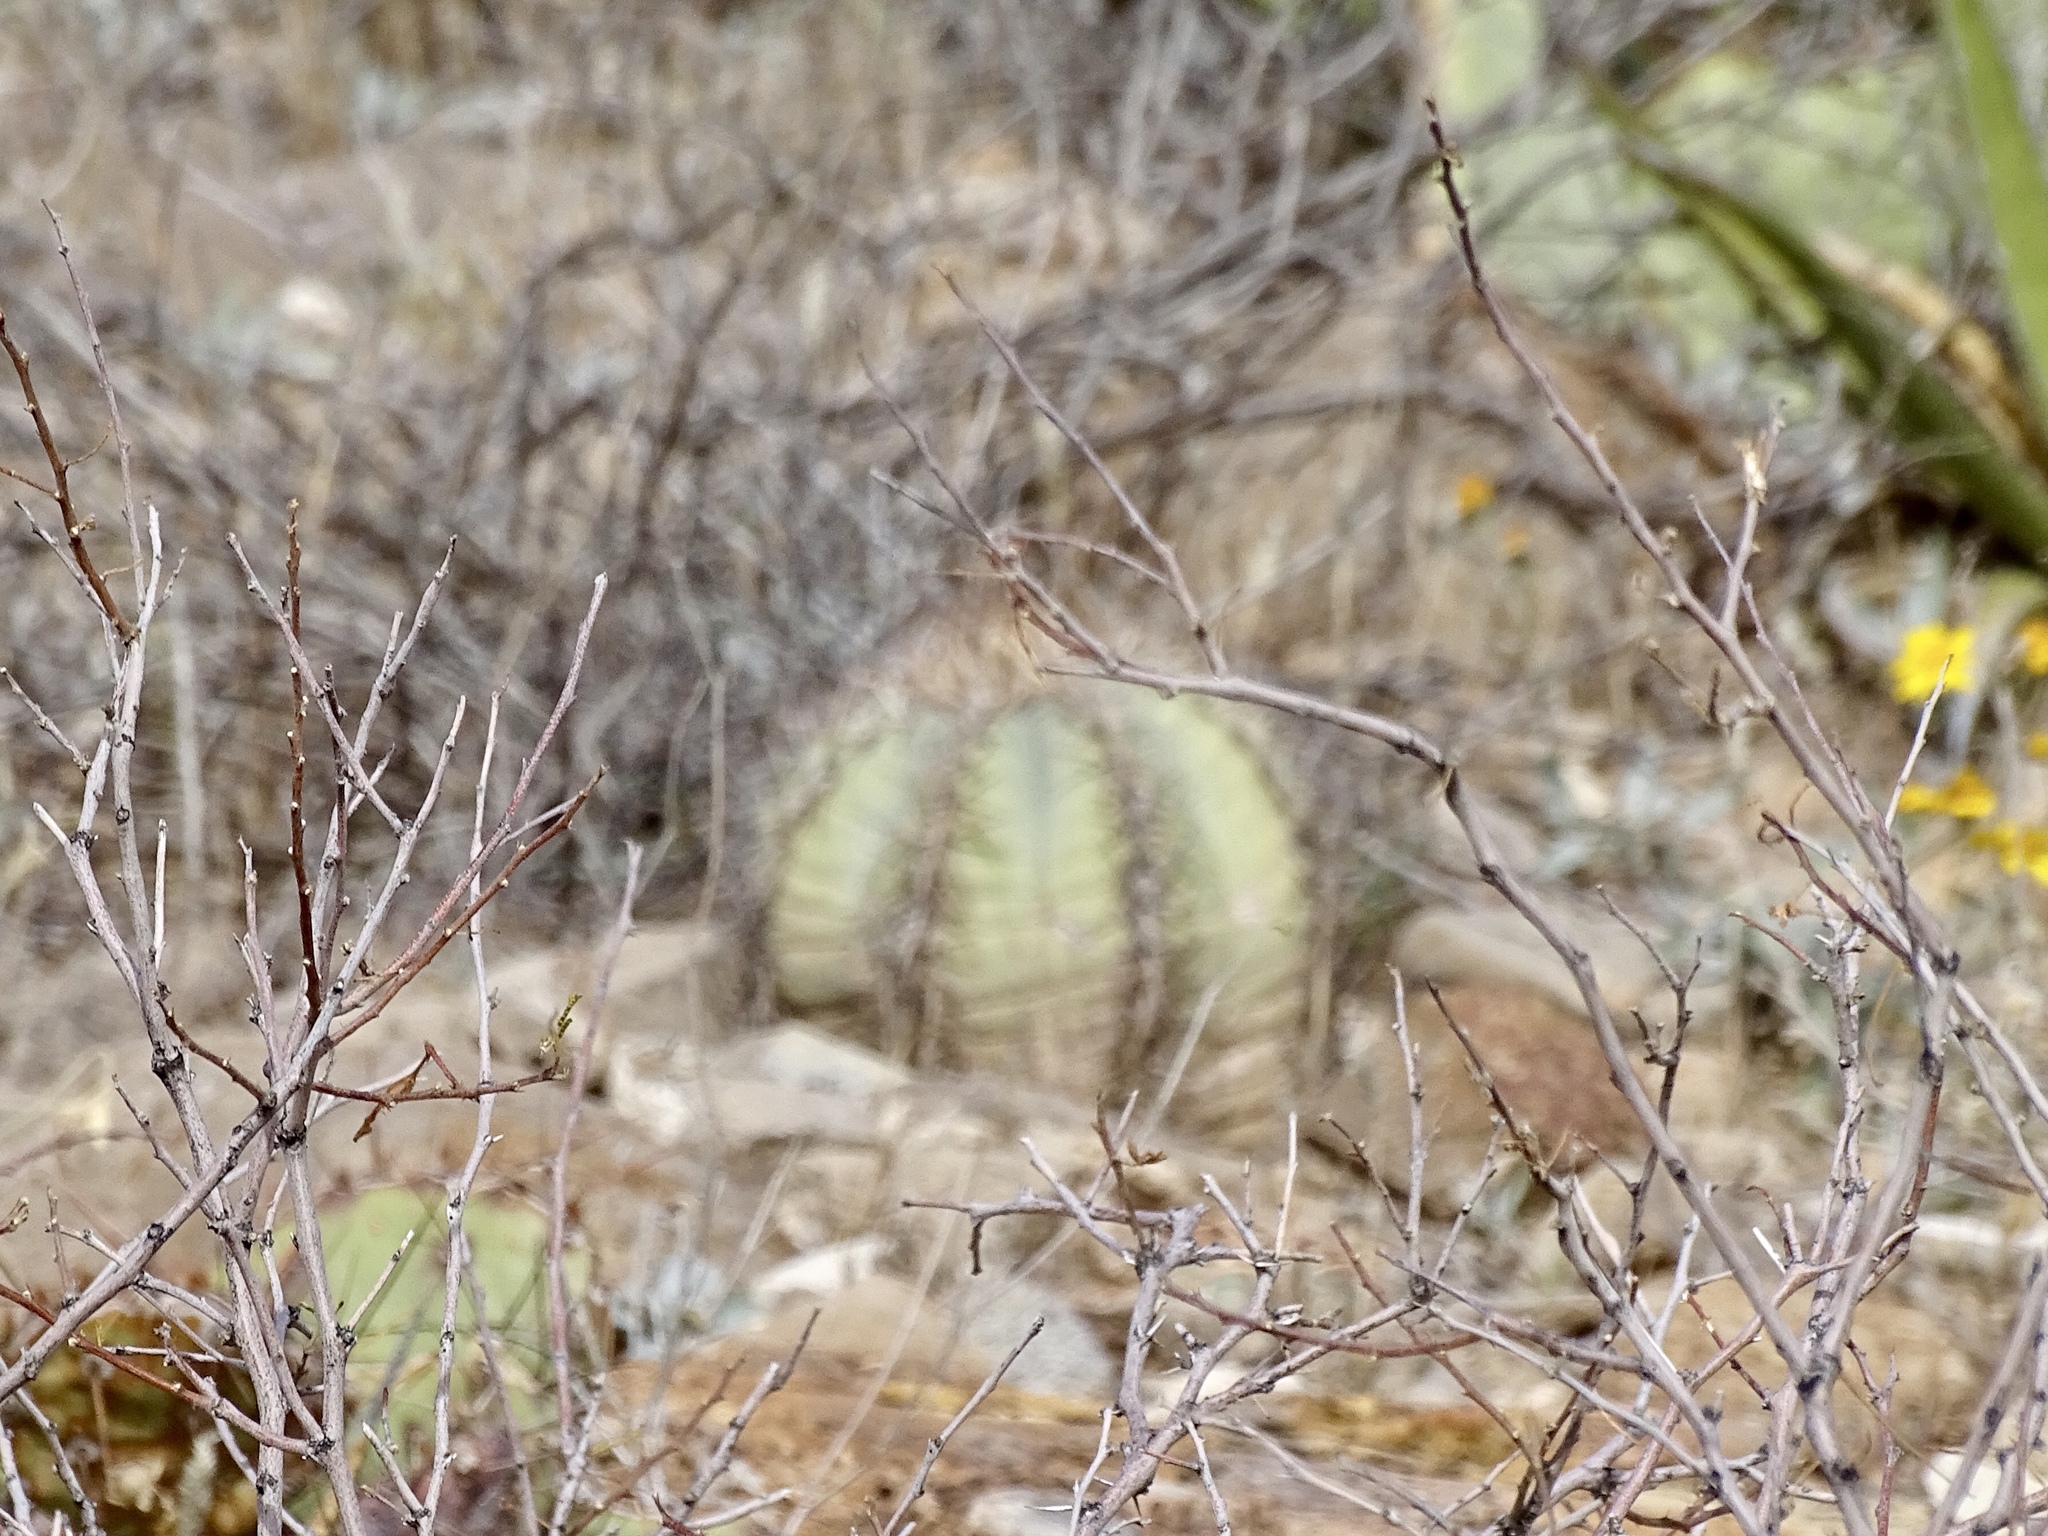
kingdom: Plantae
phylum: Tracheophyta
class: Magnoliopsida
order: Caryophyllales
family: Cactaceae
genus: Echinocactus
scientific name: Echinocactus horizonthalonius
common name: Devilshead
